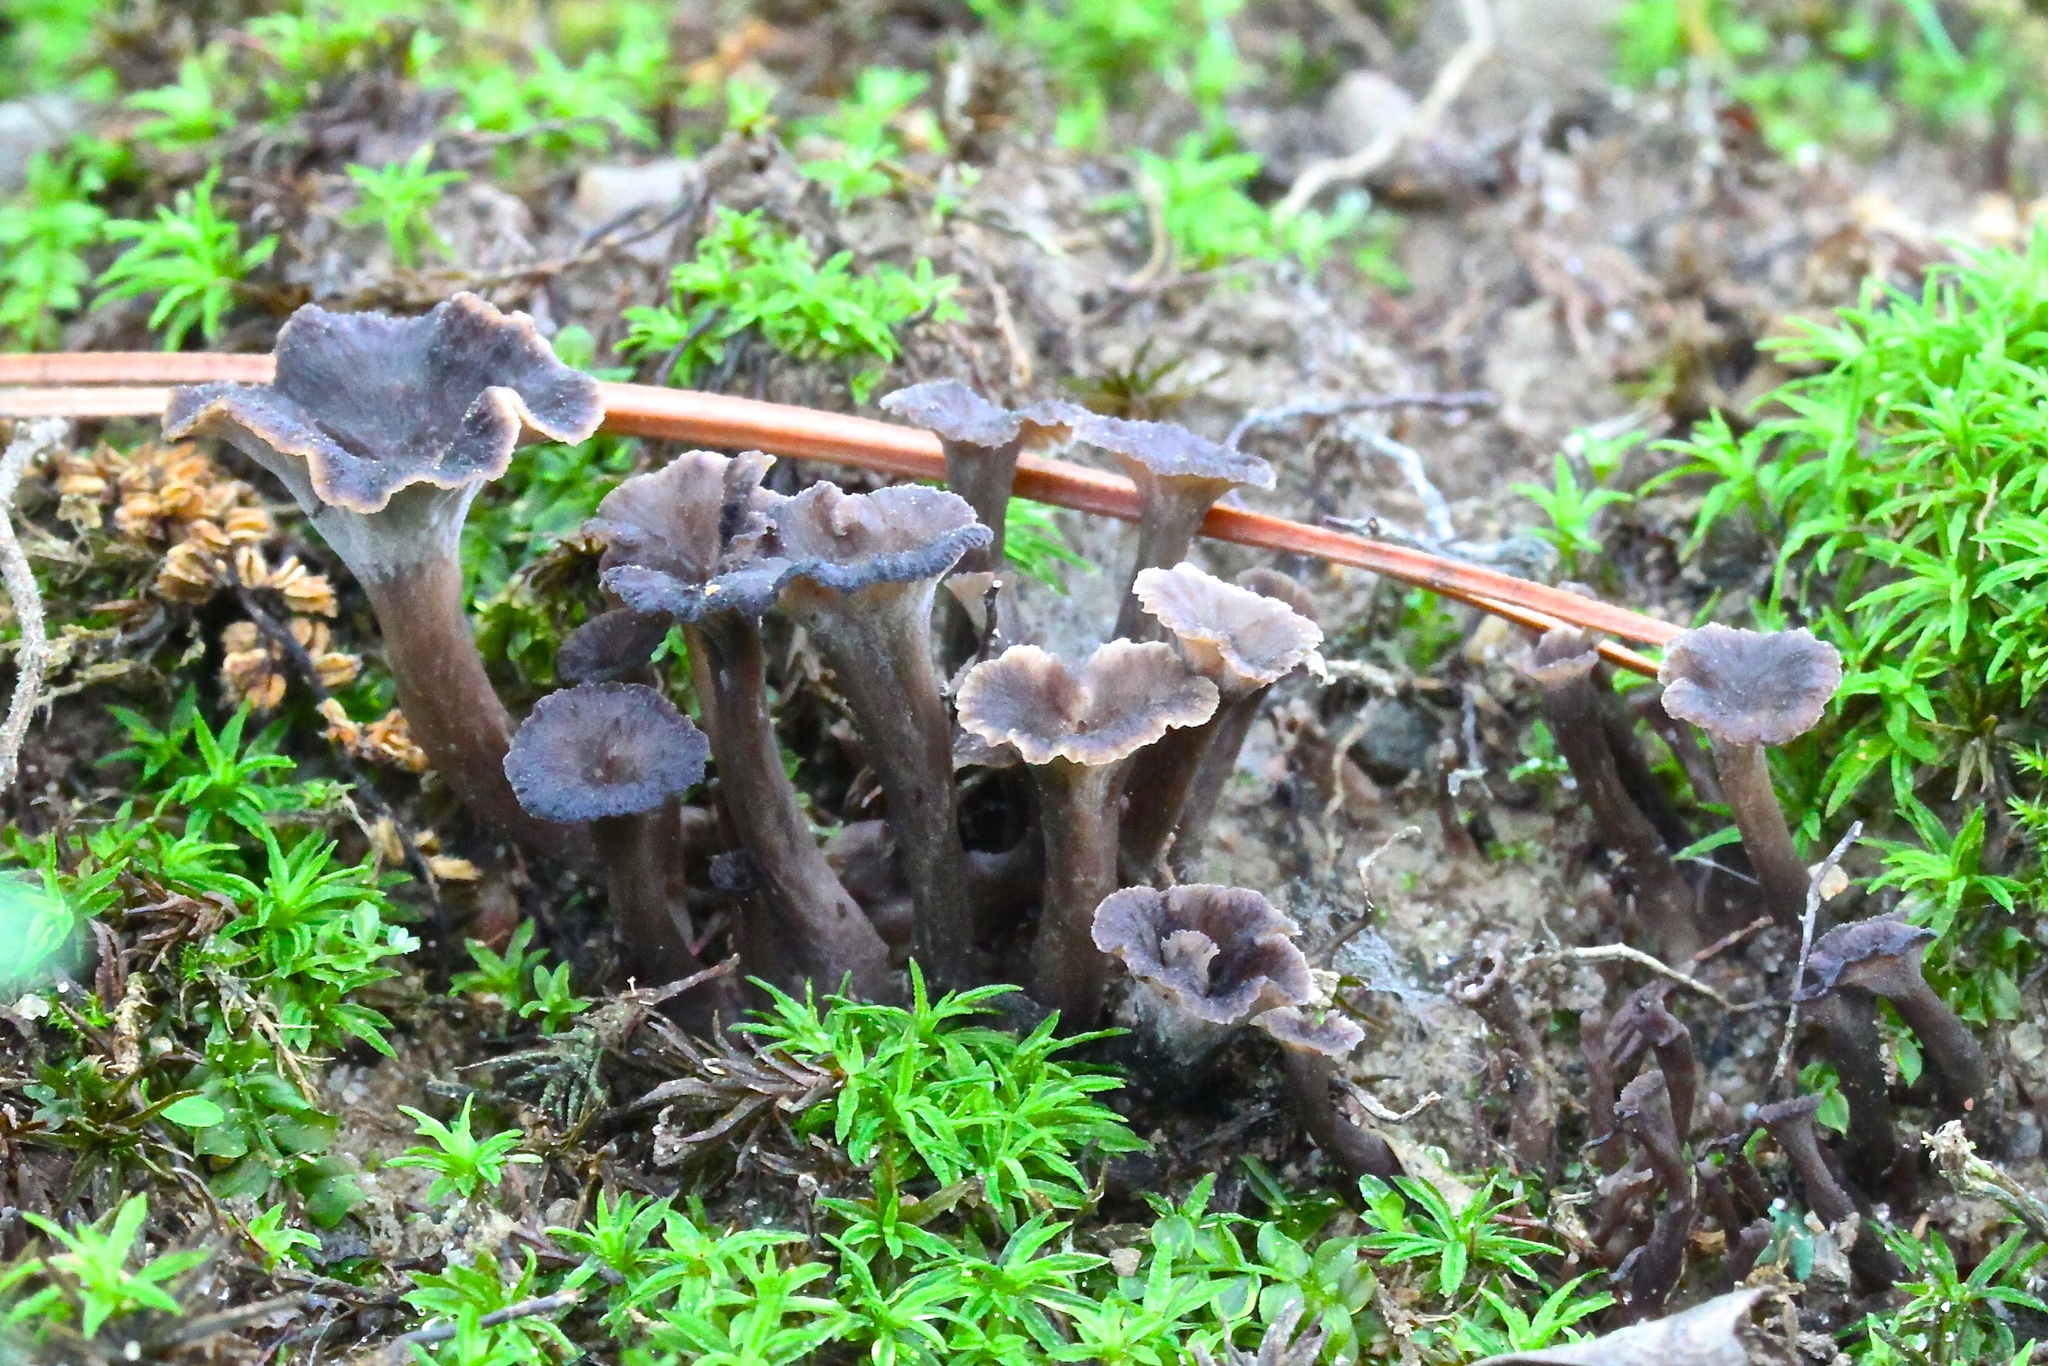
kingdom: Fungi
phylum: Basidiomycota
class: Agaricomycetes
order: Cantharellales
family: Hydnaceae
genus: Pseudocraterellus
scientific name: Pseudocraterellus subundulatus
